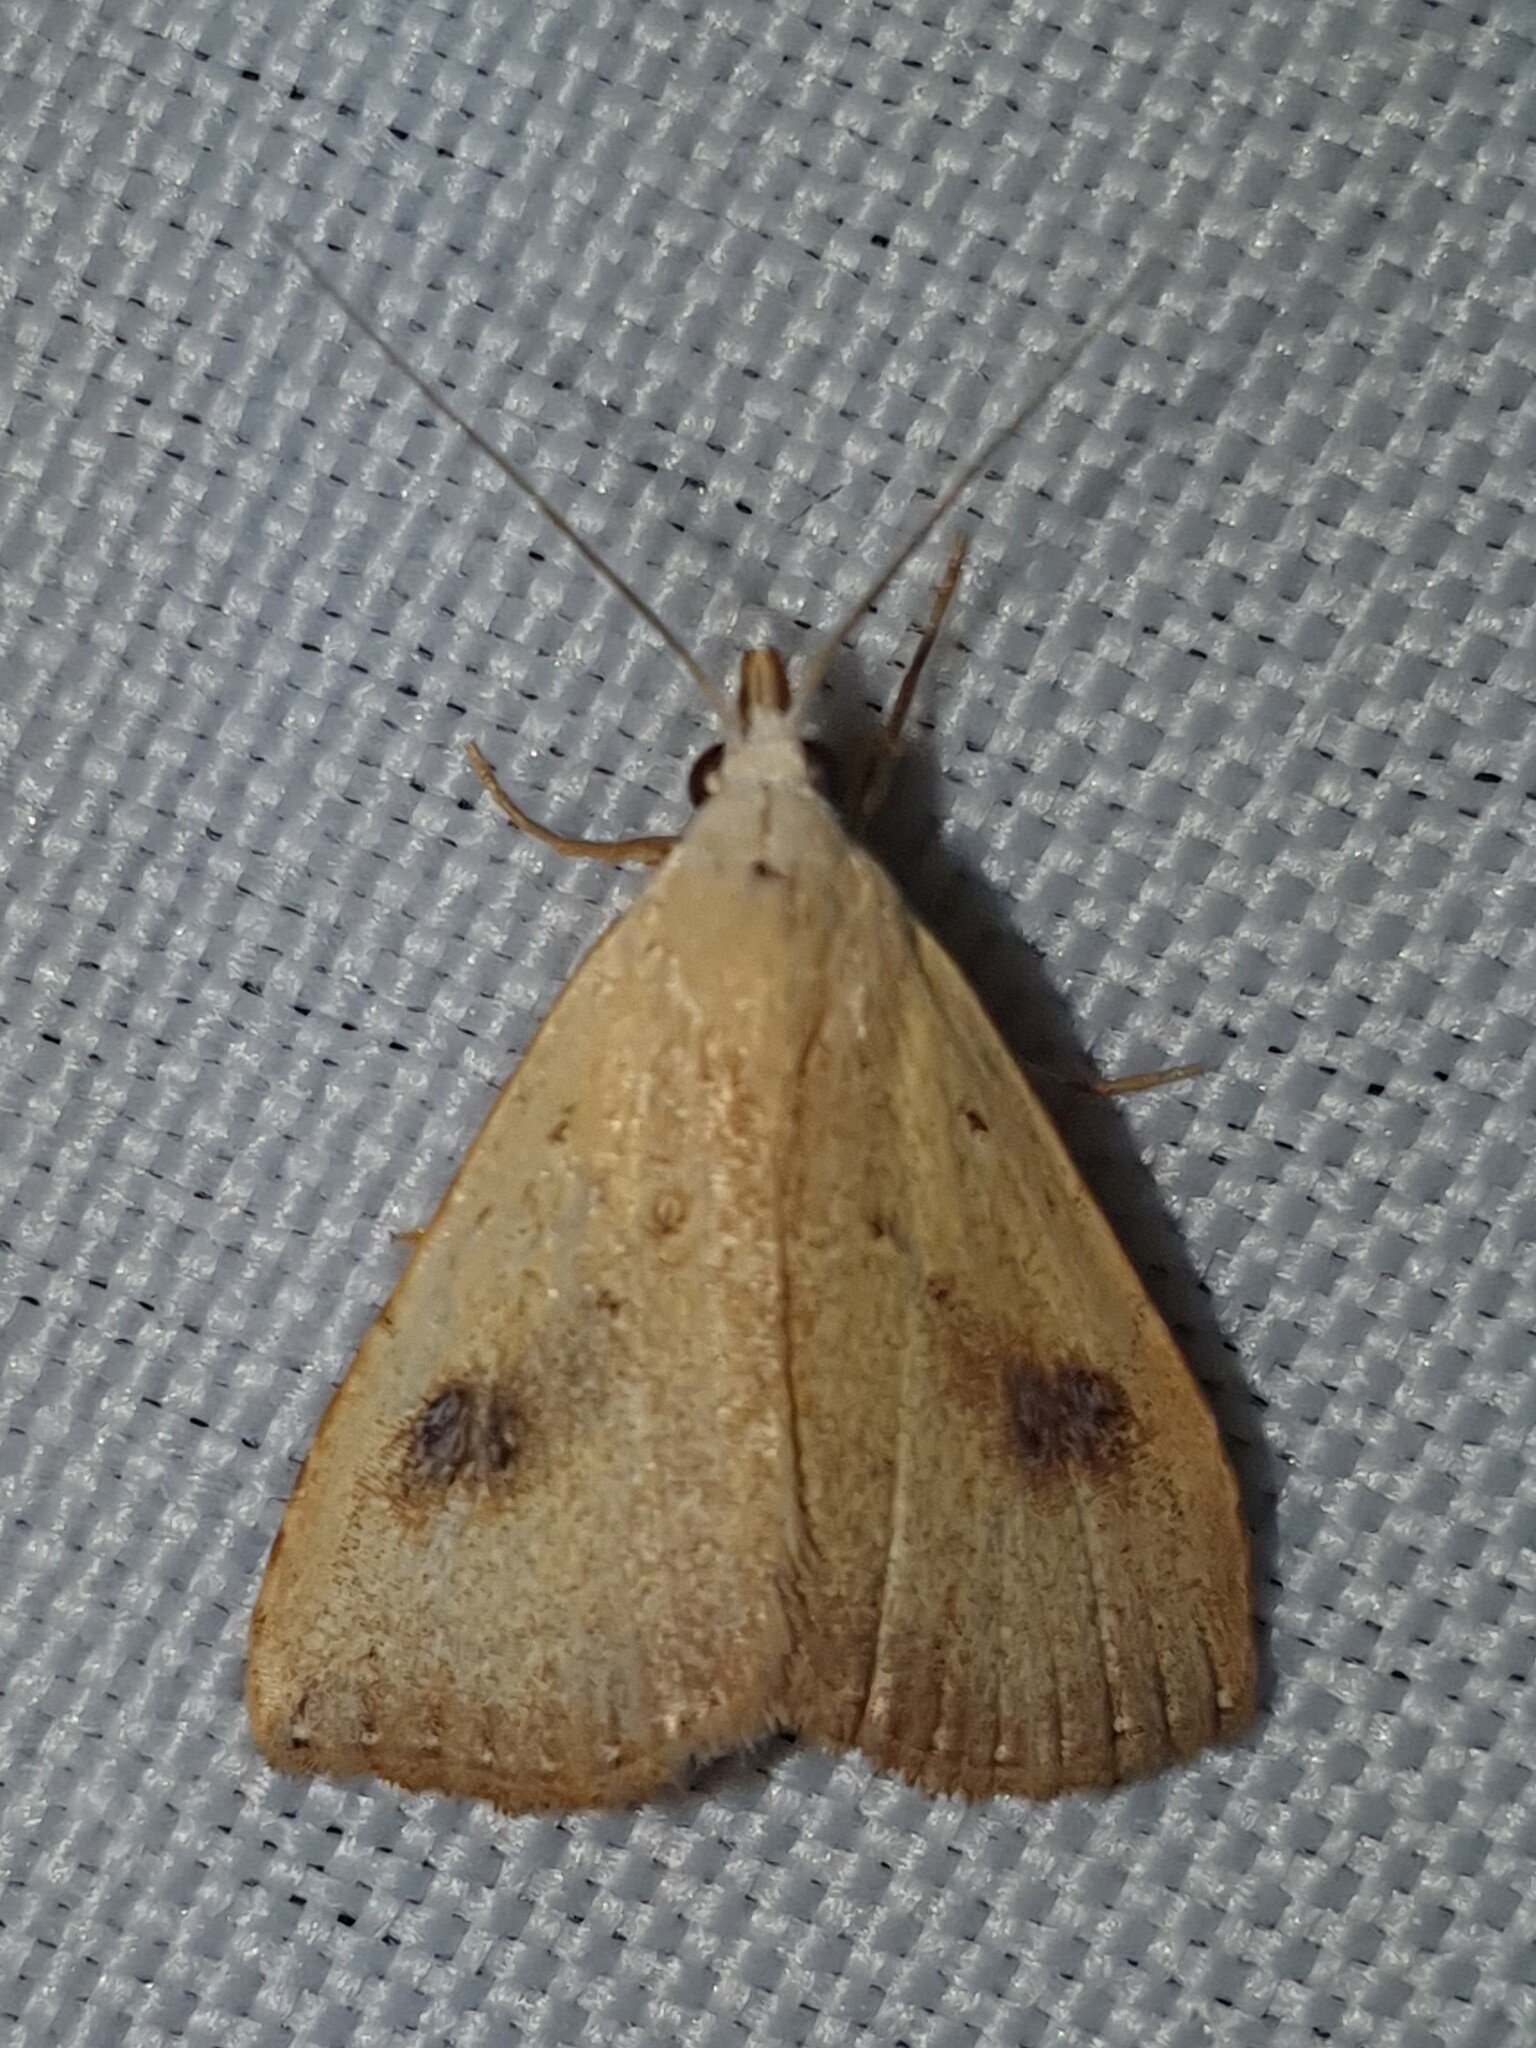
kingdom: Animalia
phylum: Arthropoda
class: Insecta
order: Lepidoptera
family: Erebidae
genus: Rivula
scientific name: Rivula sericealis
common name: Straw dot
